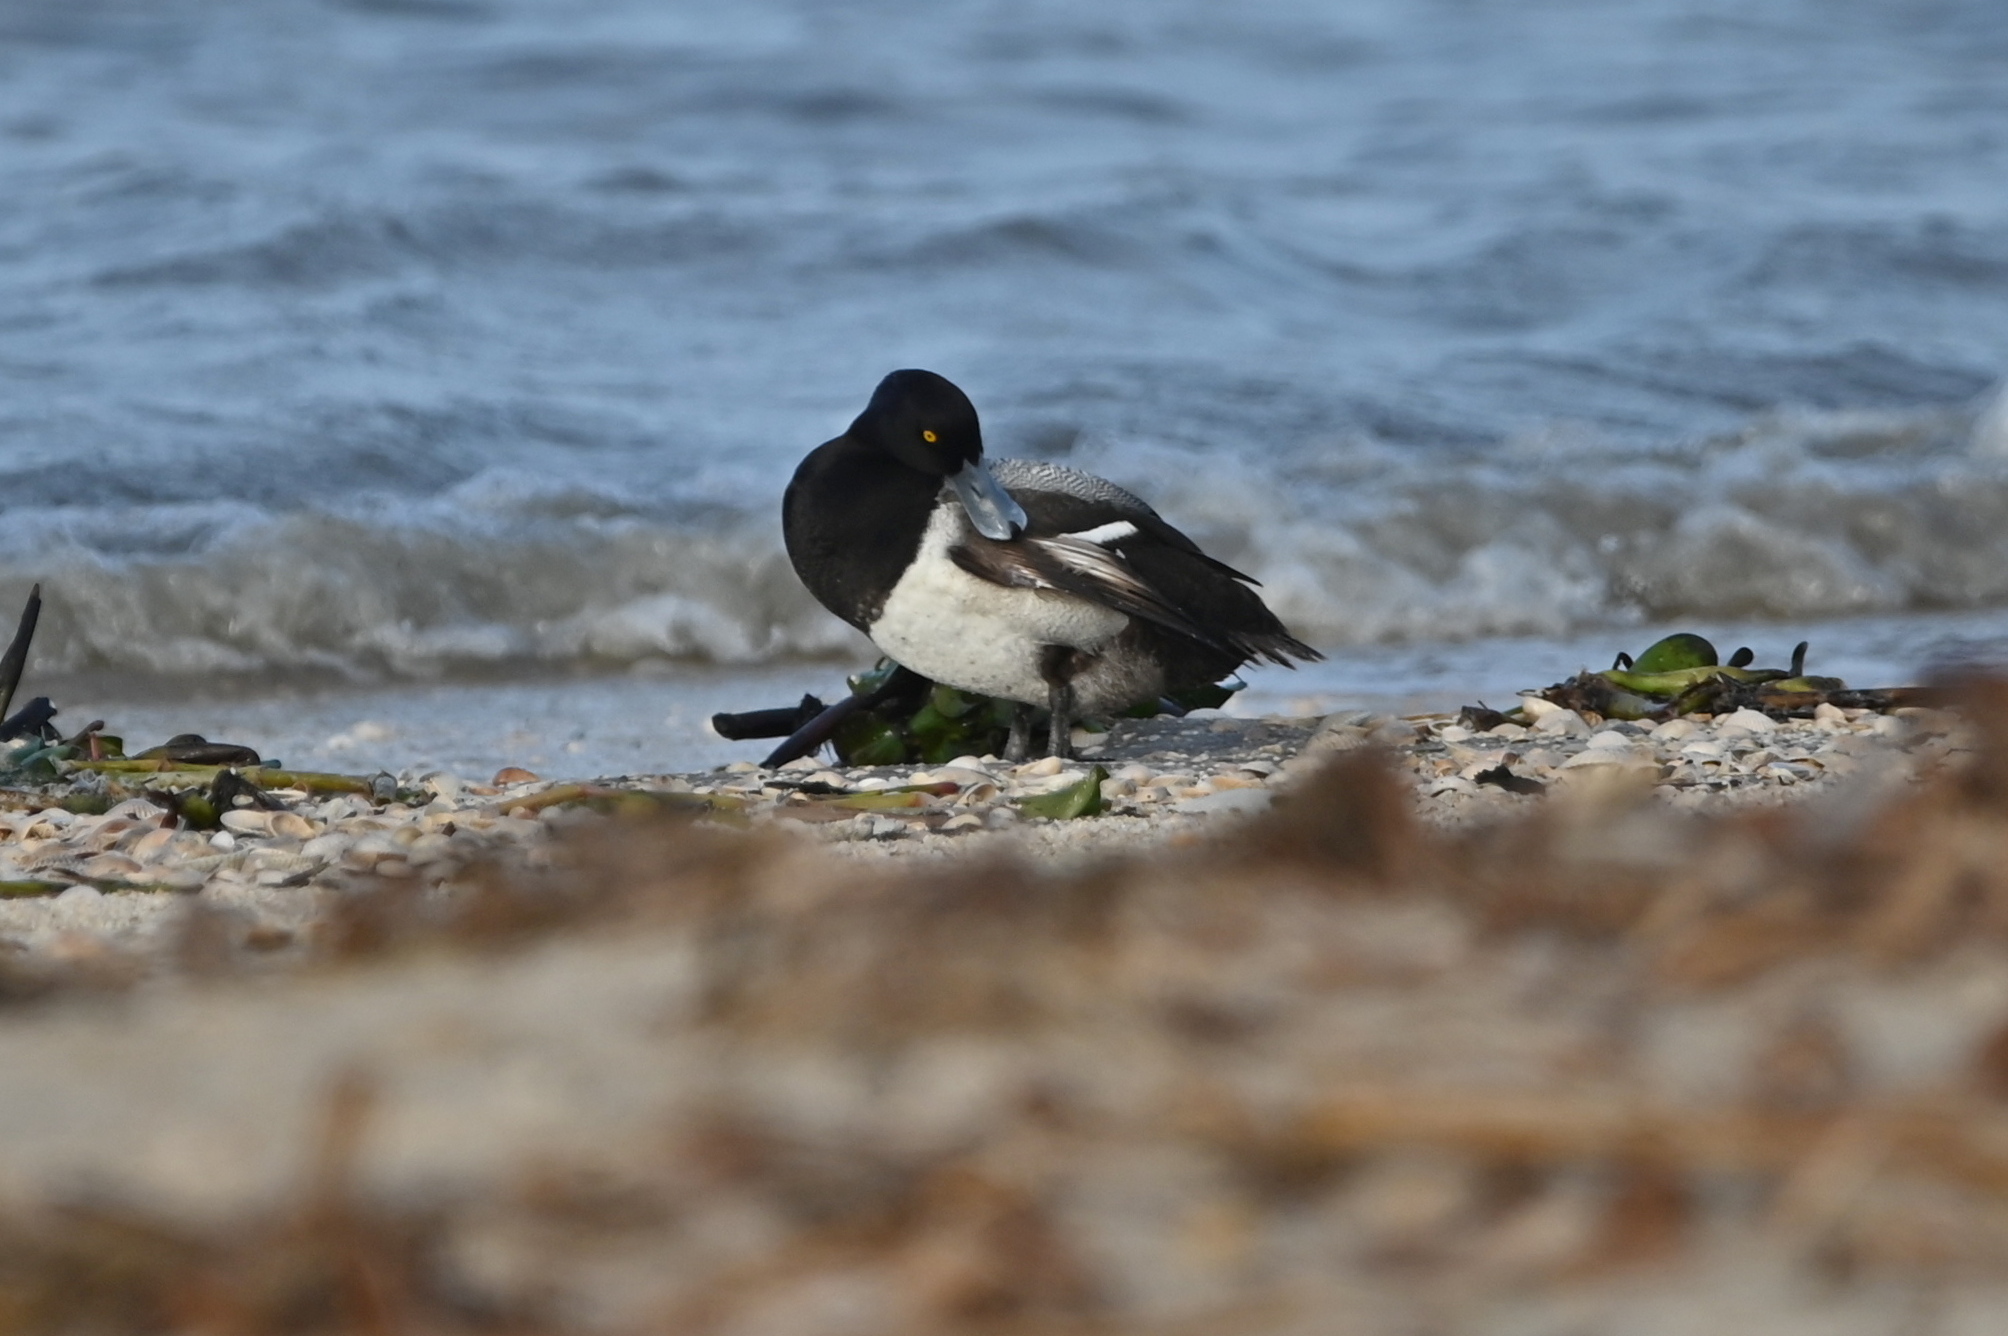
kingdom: Animalia
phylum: Chordata
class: Aves
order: Anseriformes
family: Anatidae
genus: Aythya
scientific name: Aythya marila
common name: Greater scaup
